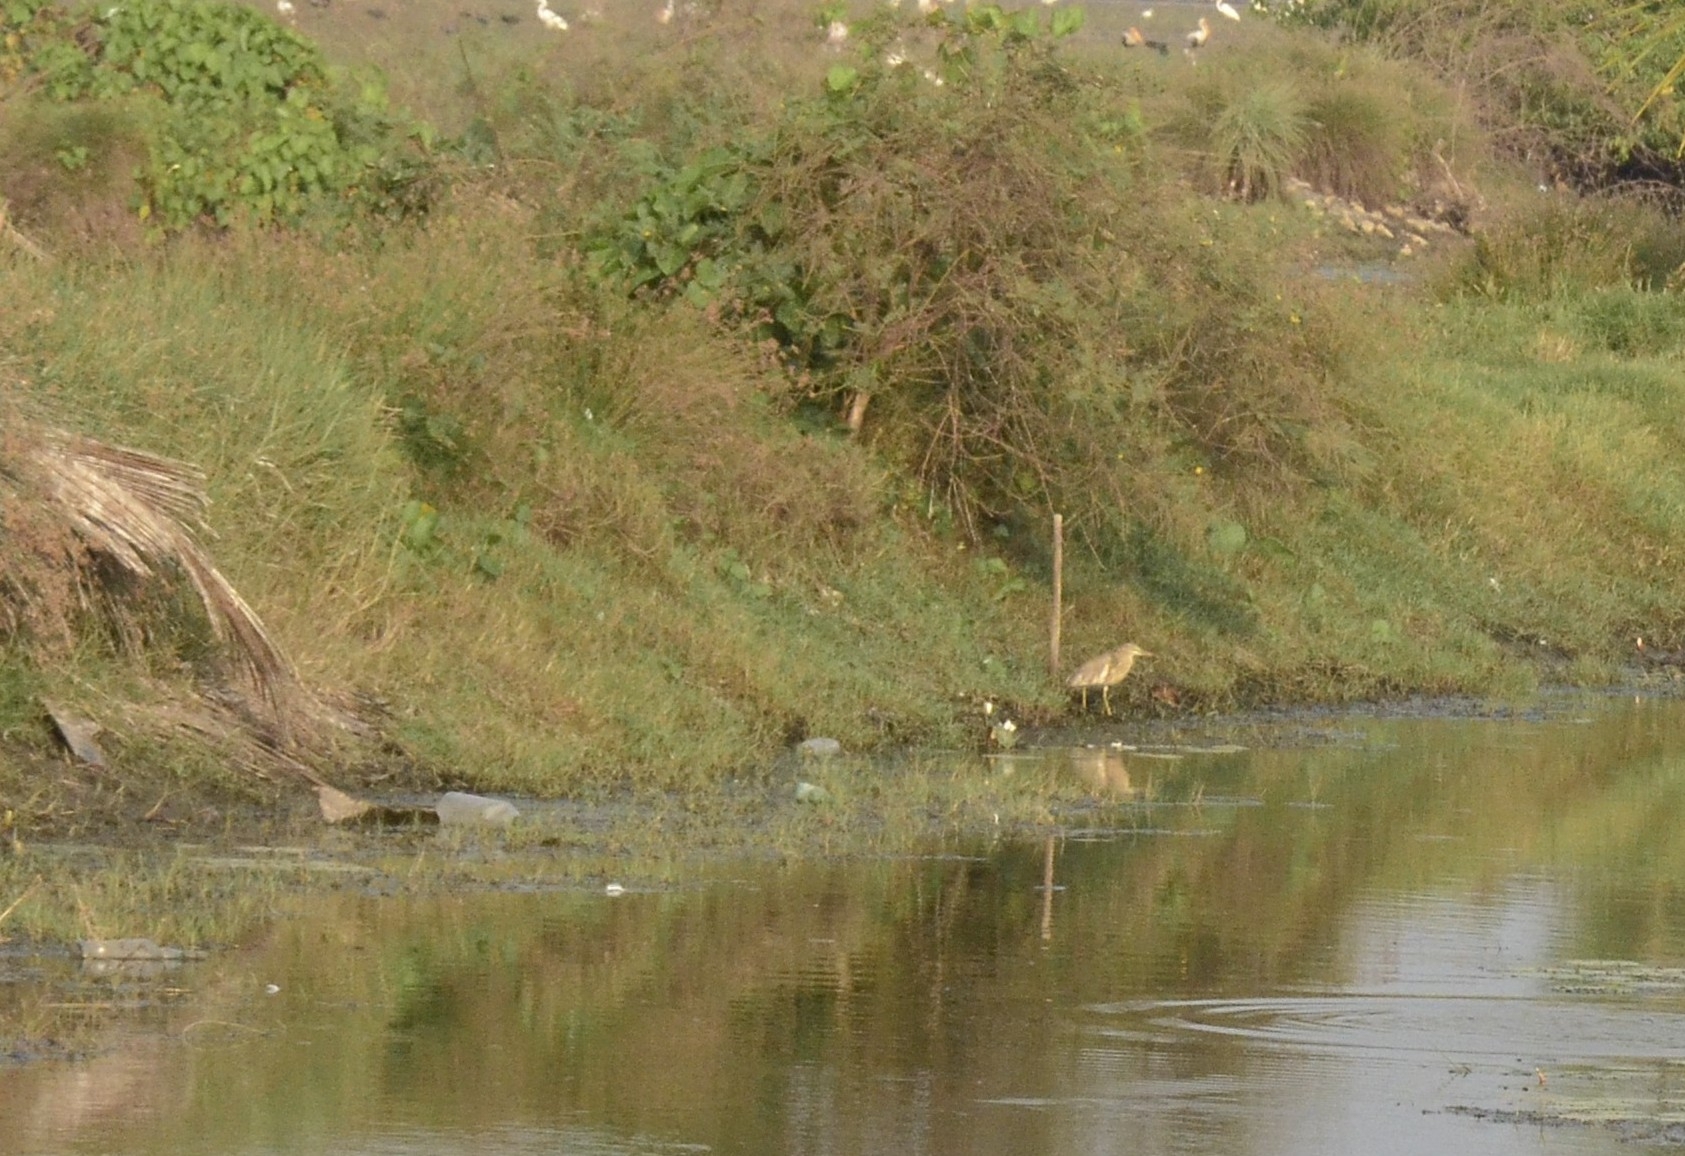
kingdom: Animalia
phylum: Chordata
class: Aves
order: Pelecaniformes
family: Ardeidae
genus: Ardeola
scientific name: Ardeola grayii
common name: Indian pond heron
